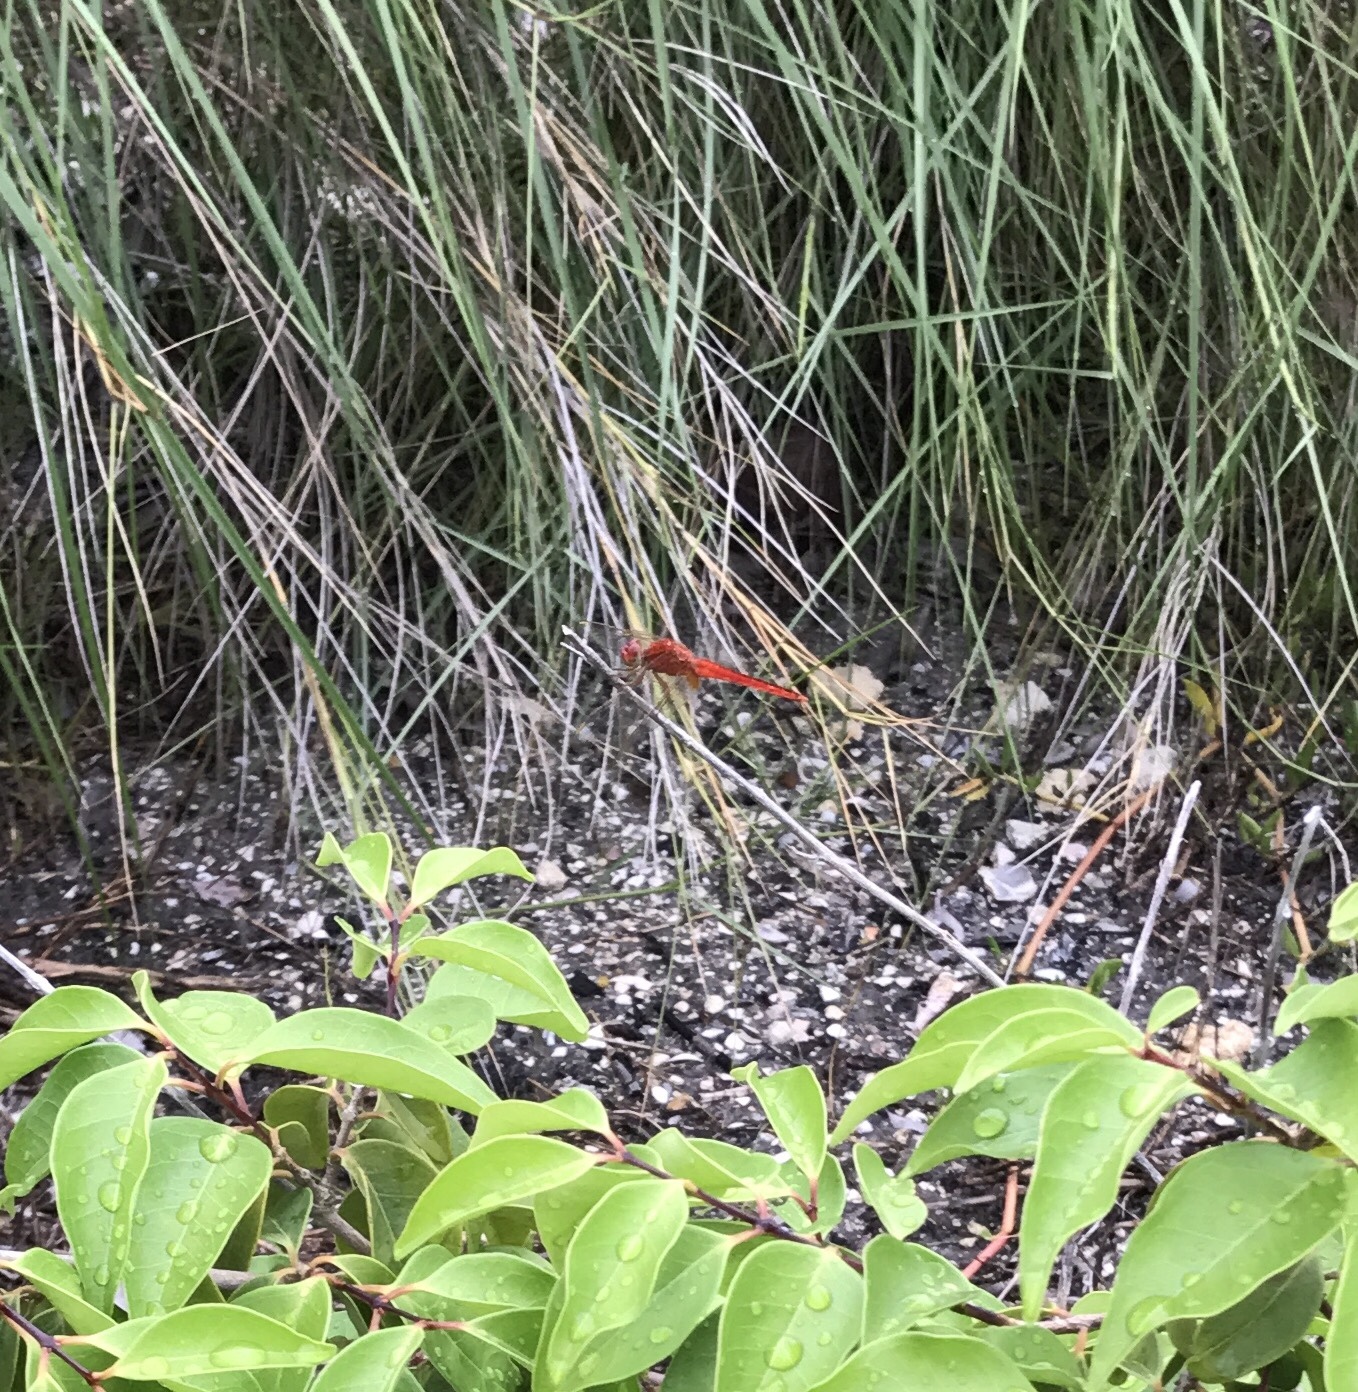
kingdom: Animalia
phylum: Arthropoda
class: Insecta
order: Odonata
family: Libellulidae
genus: Crocothemis
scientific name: Crocothemis servilia
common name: Scarlet skimmer
